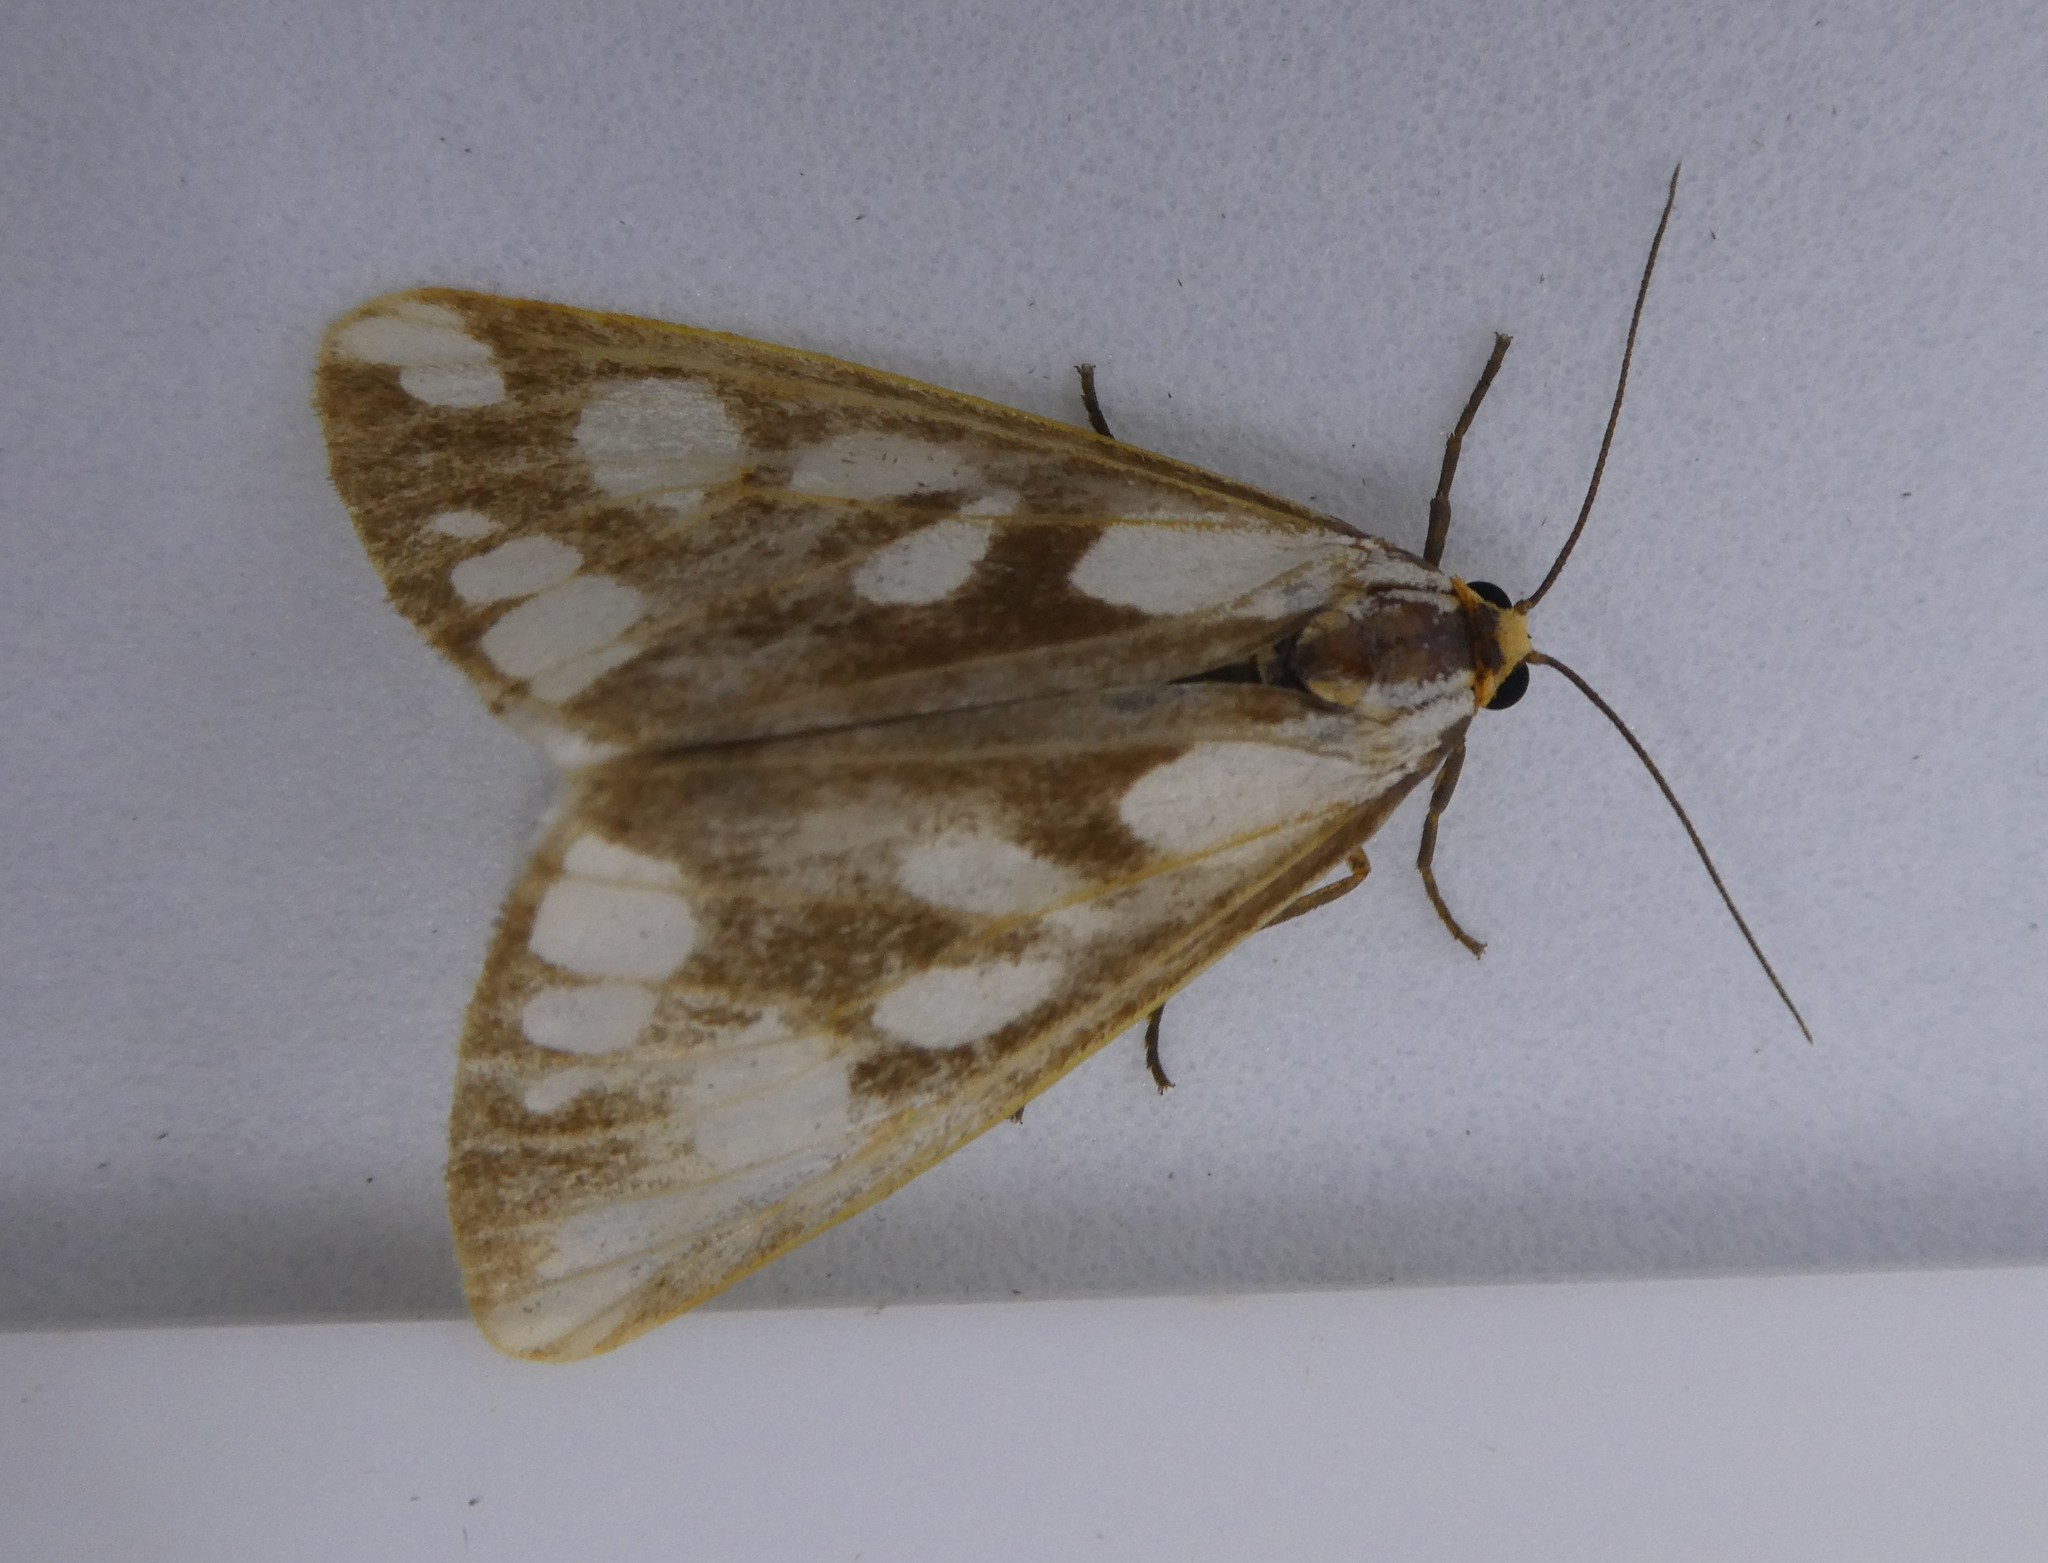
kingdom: Animalia
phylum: Arthropoda
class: Insecta
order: Lepidoptera
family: Erebidae
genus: Haploa
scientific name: Haploa confusa
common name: Confused haploa moth
